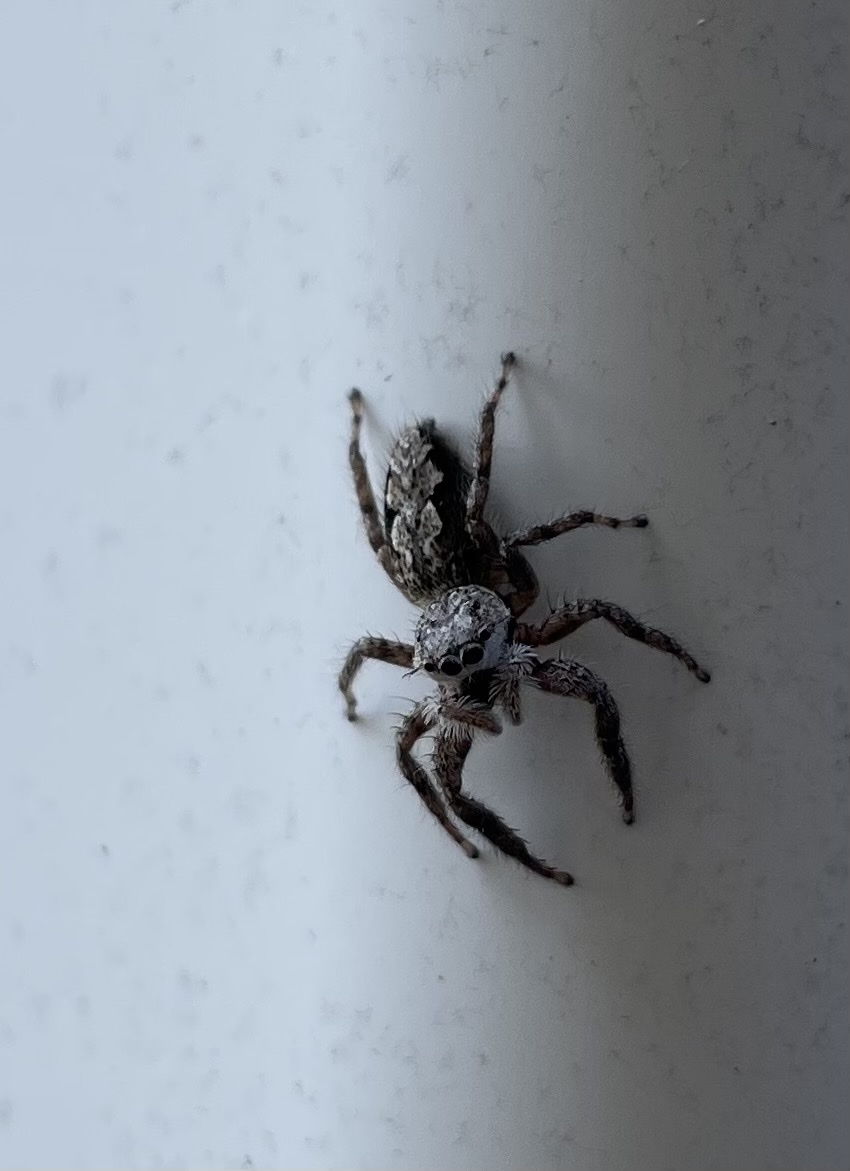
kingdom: Animalia
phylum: Arthropoda
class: Arachnida
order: Araneae
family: Salticidae
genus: Platycryptus
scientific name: Platycryptus undatus
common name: Tan jumping spider
